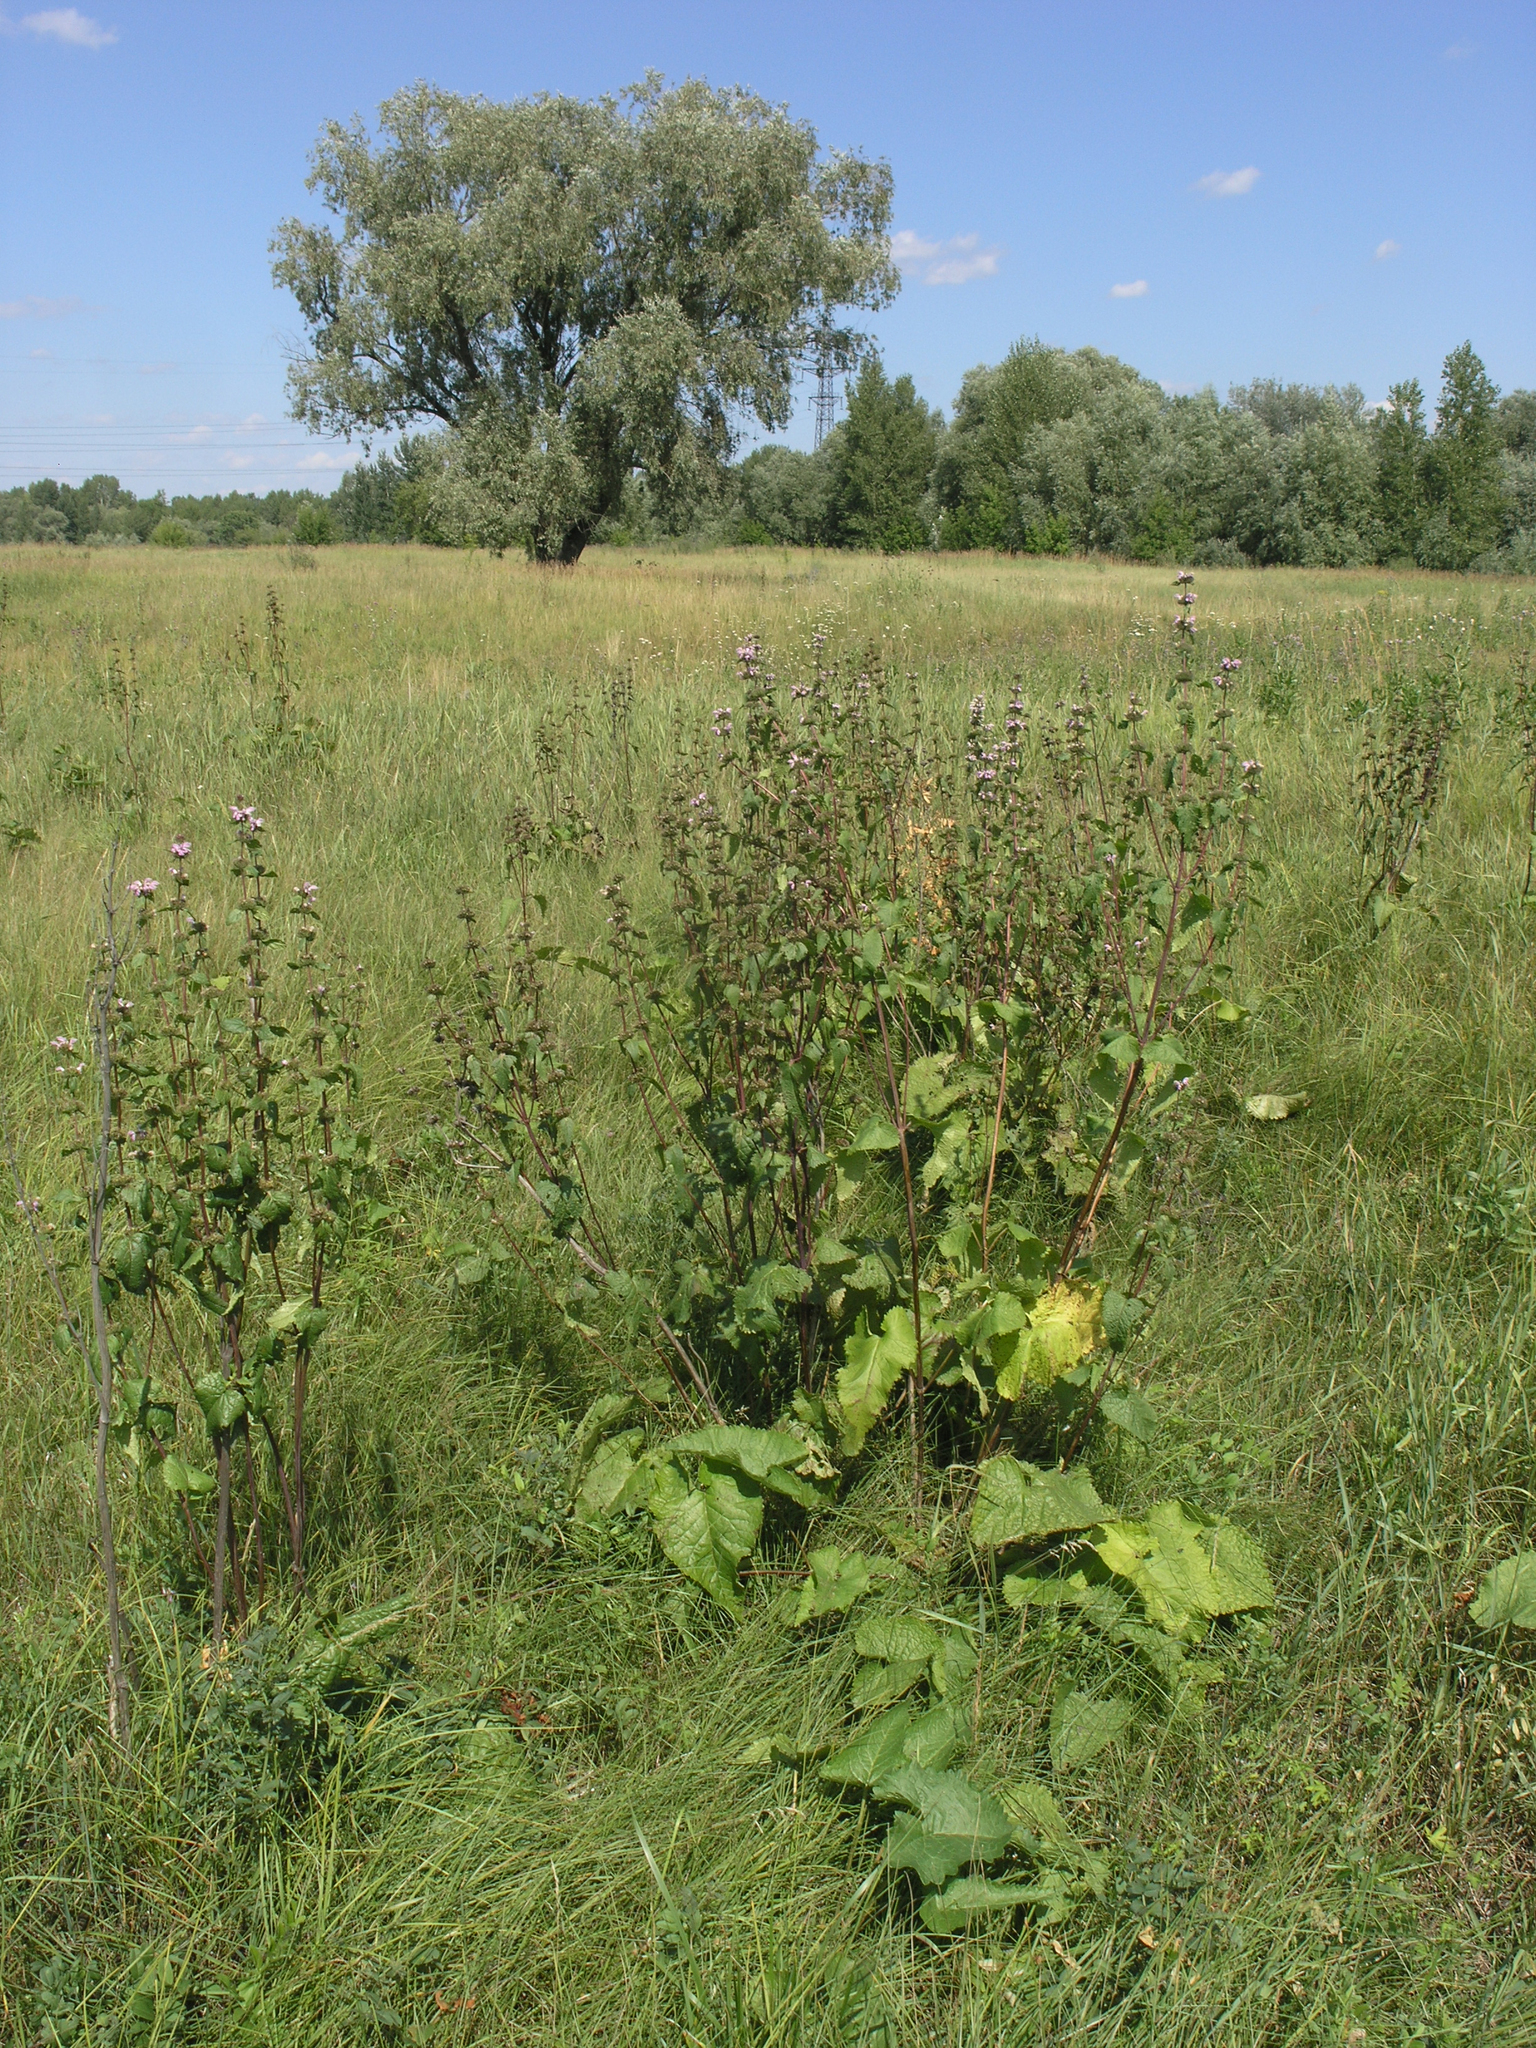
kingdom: Plantae
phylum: Tracheophyta
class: Magnoliopsida
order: Lamiales
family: Lamiaceae
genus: Phlomoides
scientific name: Phlomoides tuberosa
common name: Tuberous jerusalem sage
